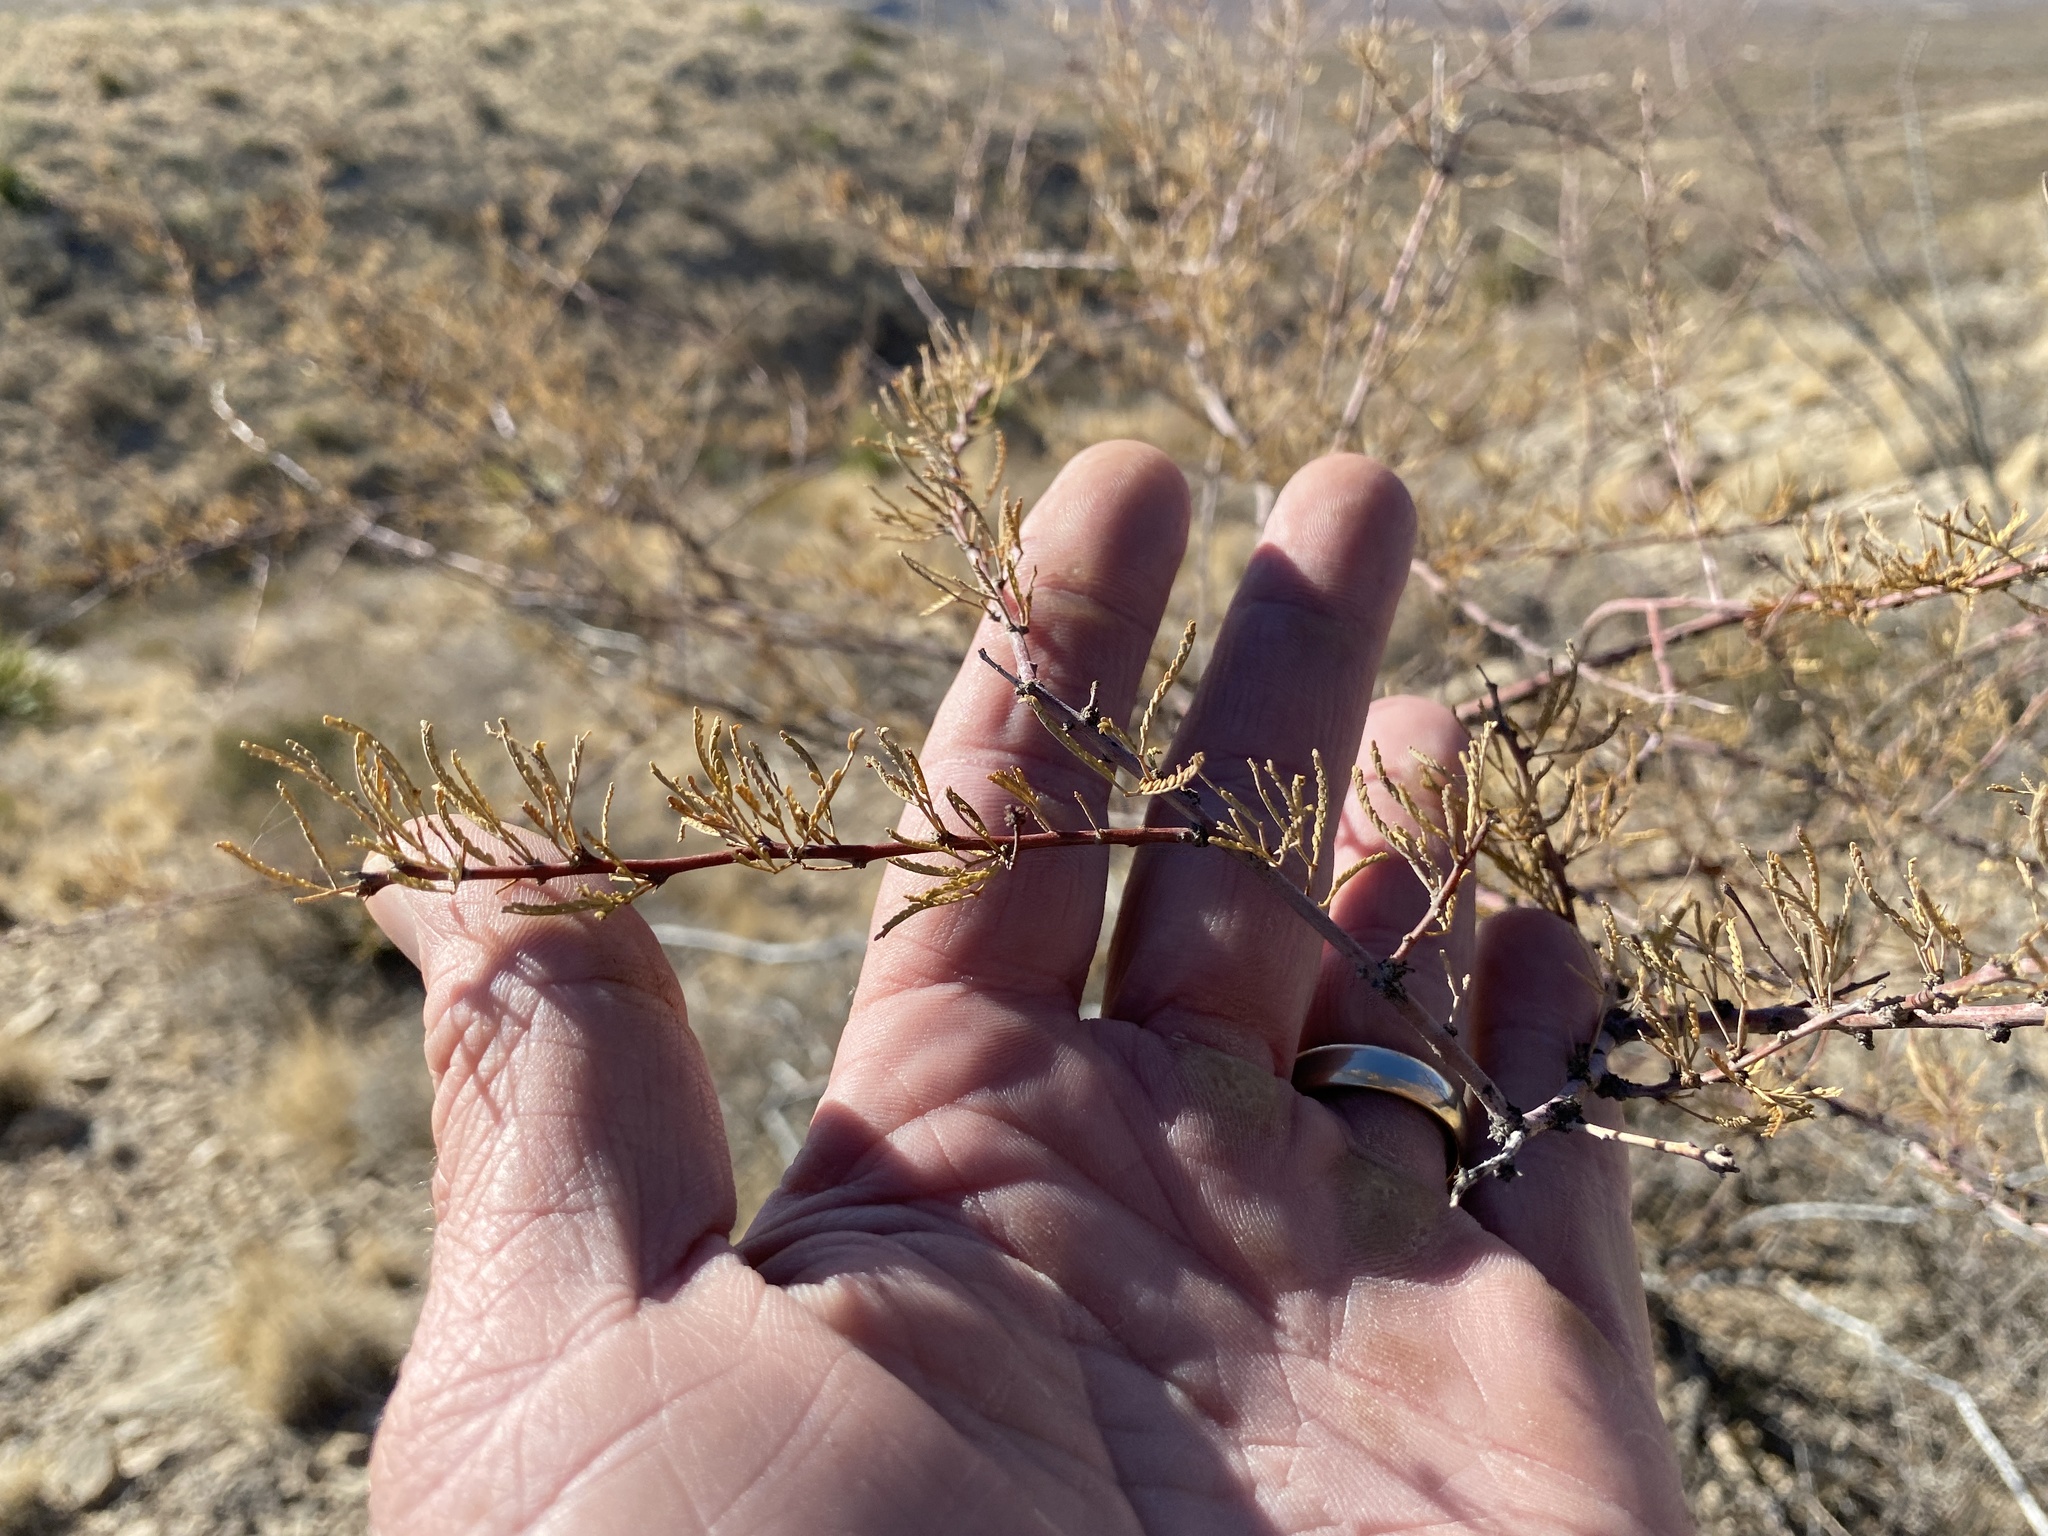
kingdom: Plantae
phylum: Tracheophyta
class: Magnoliopsida
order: Fabales
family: Fabaceae
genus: Vachellia
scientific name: Vachellia constricta
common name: Mescat acacia
